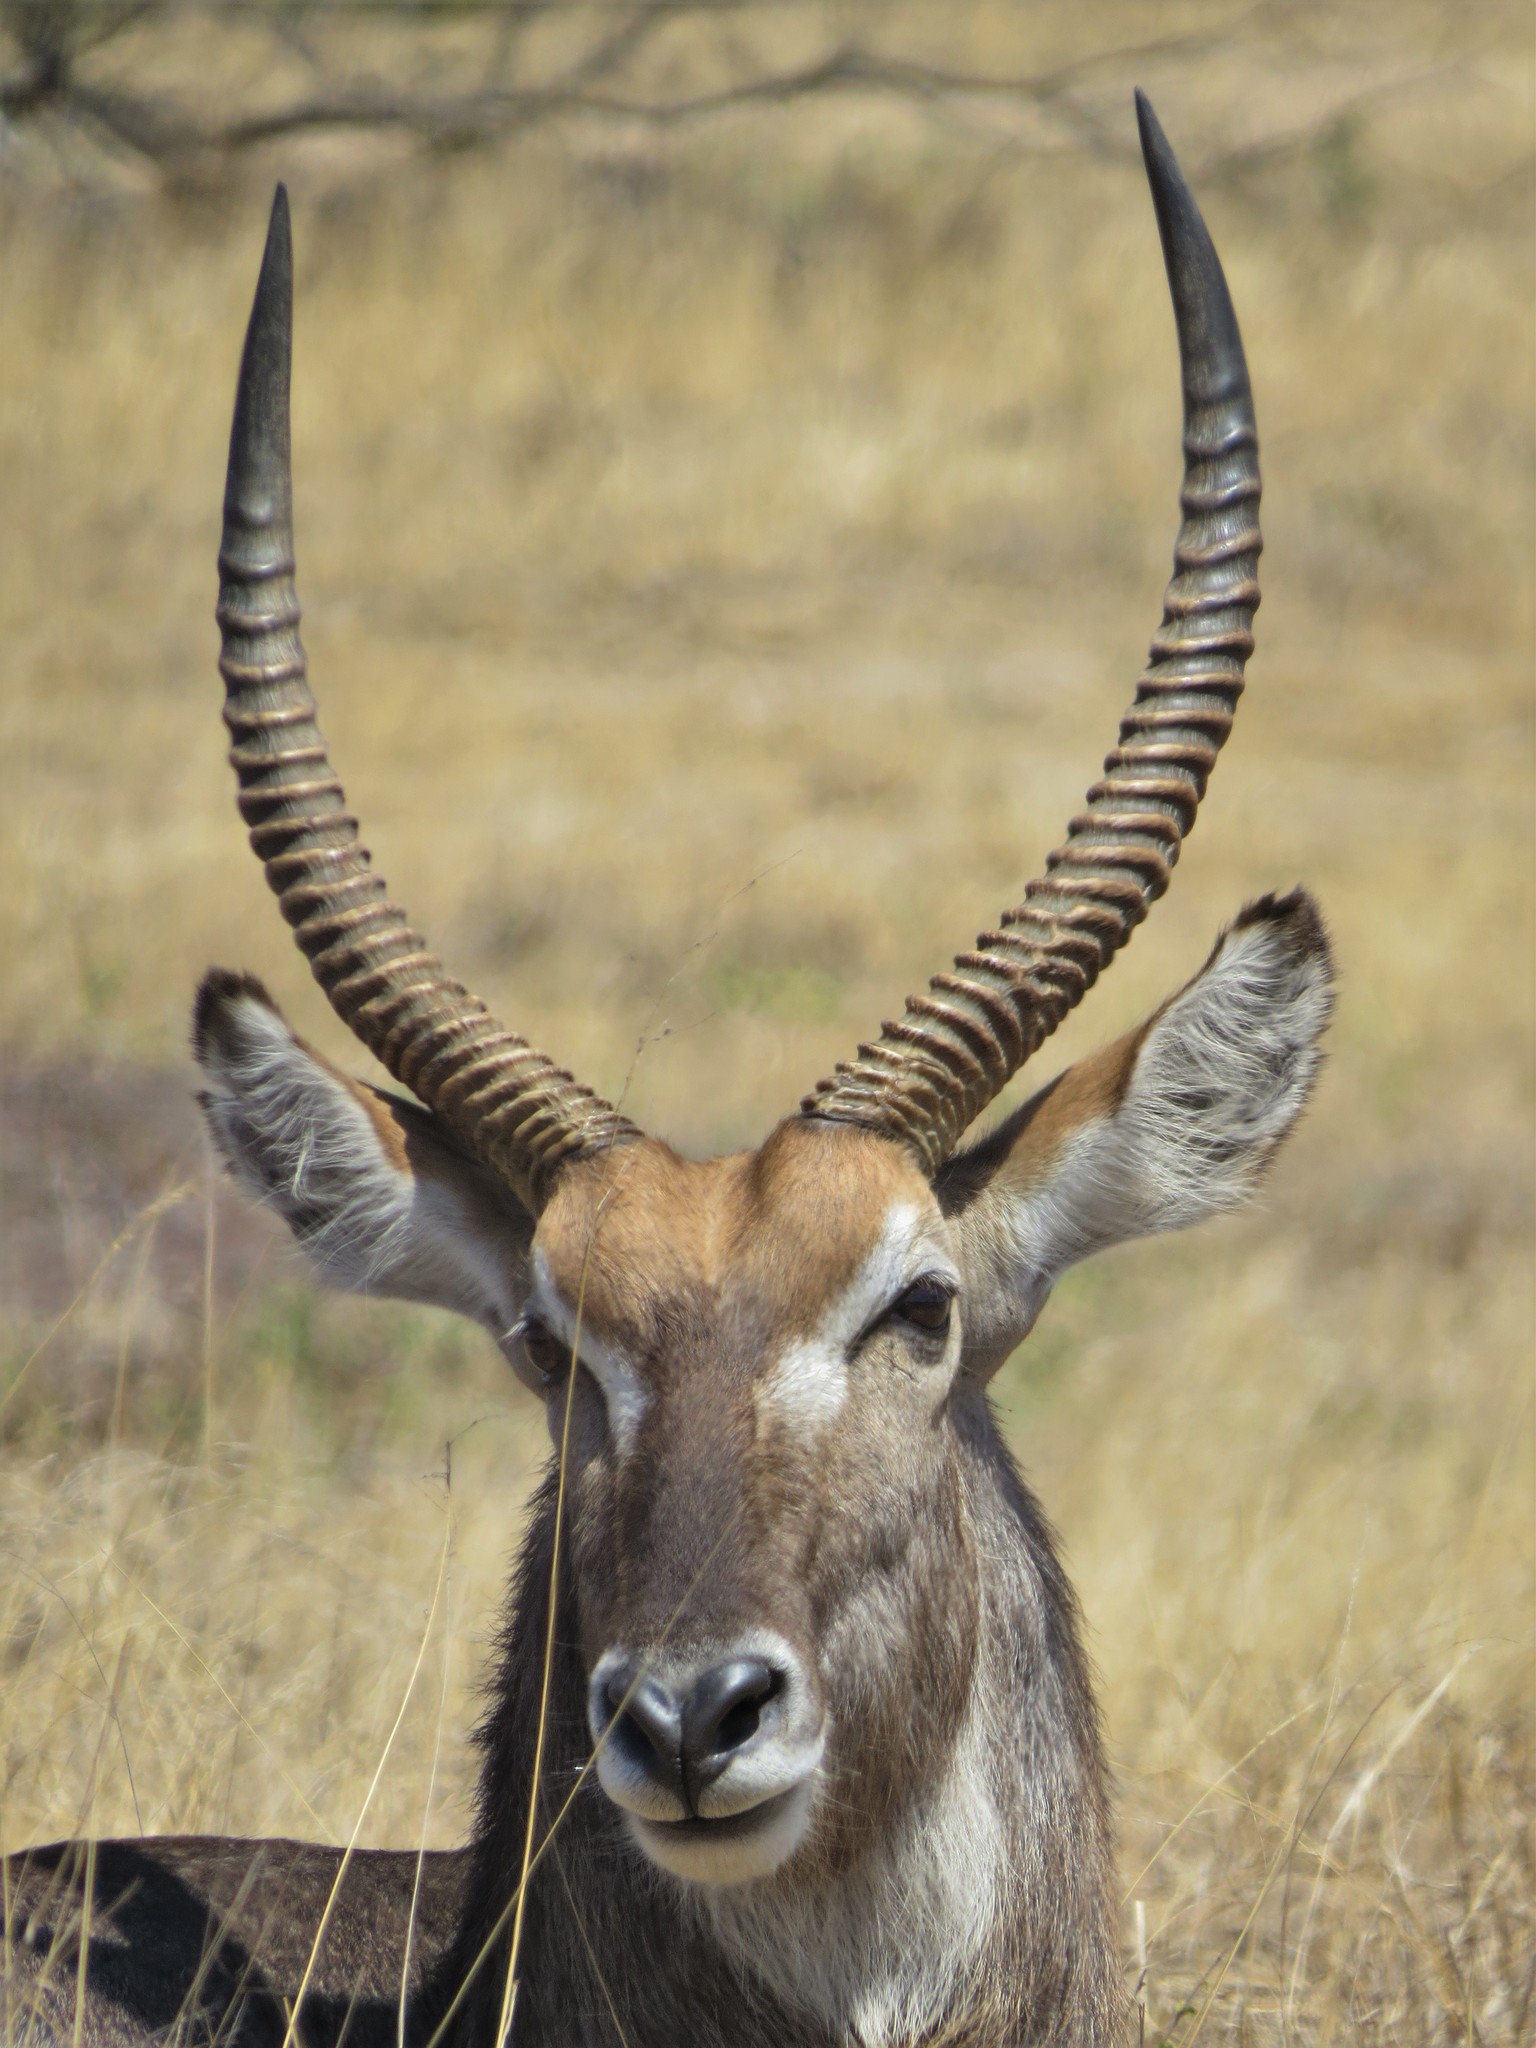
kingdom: Animalia
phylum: Chordata
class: Mammalia
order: Artiodactyla
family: Bovidae
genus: Kobus
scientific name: Kobus ellipsiprymnus
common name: Waterbuck
